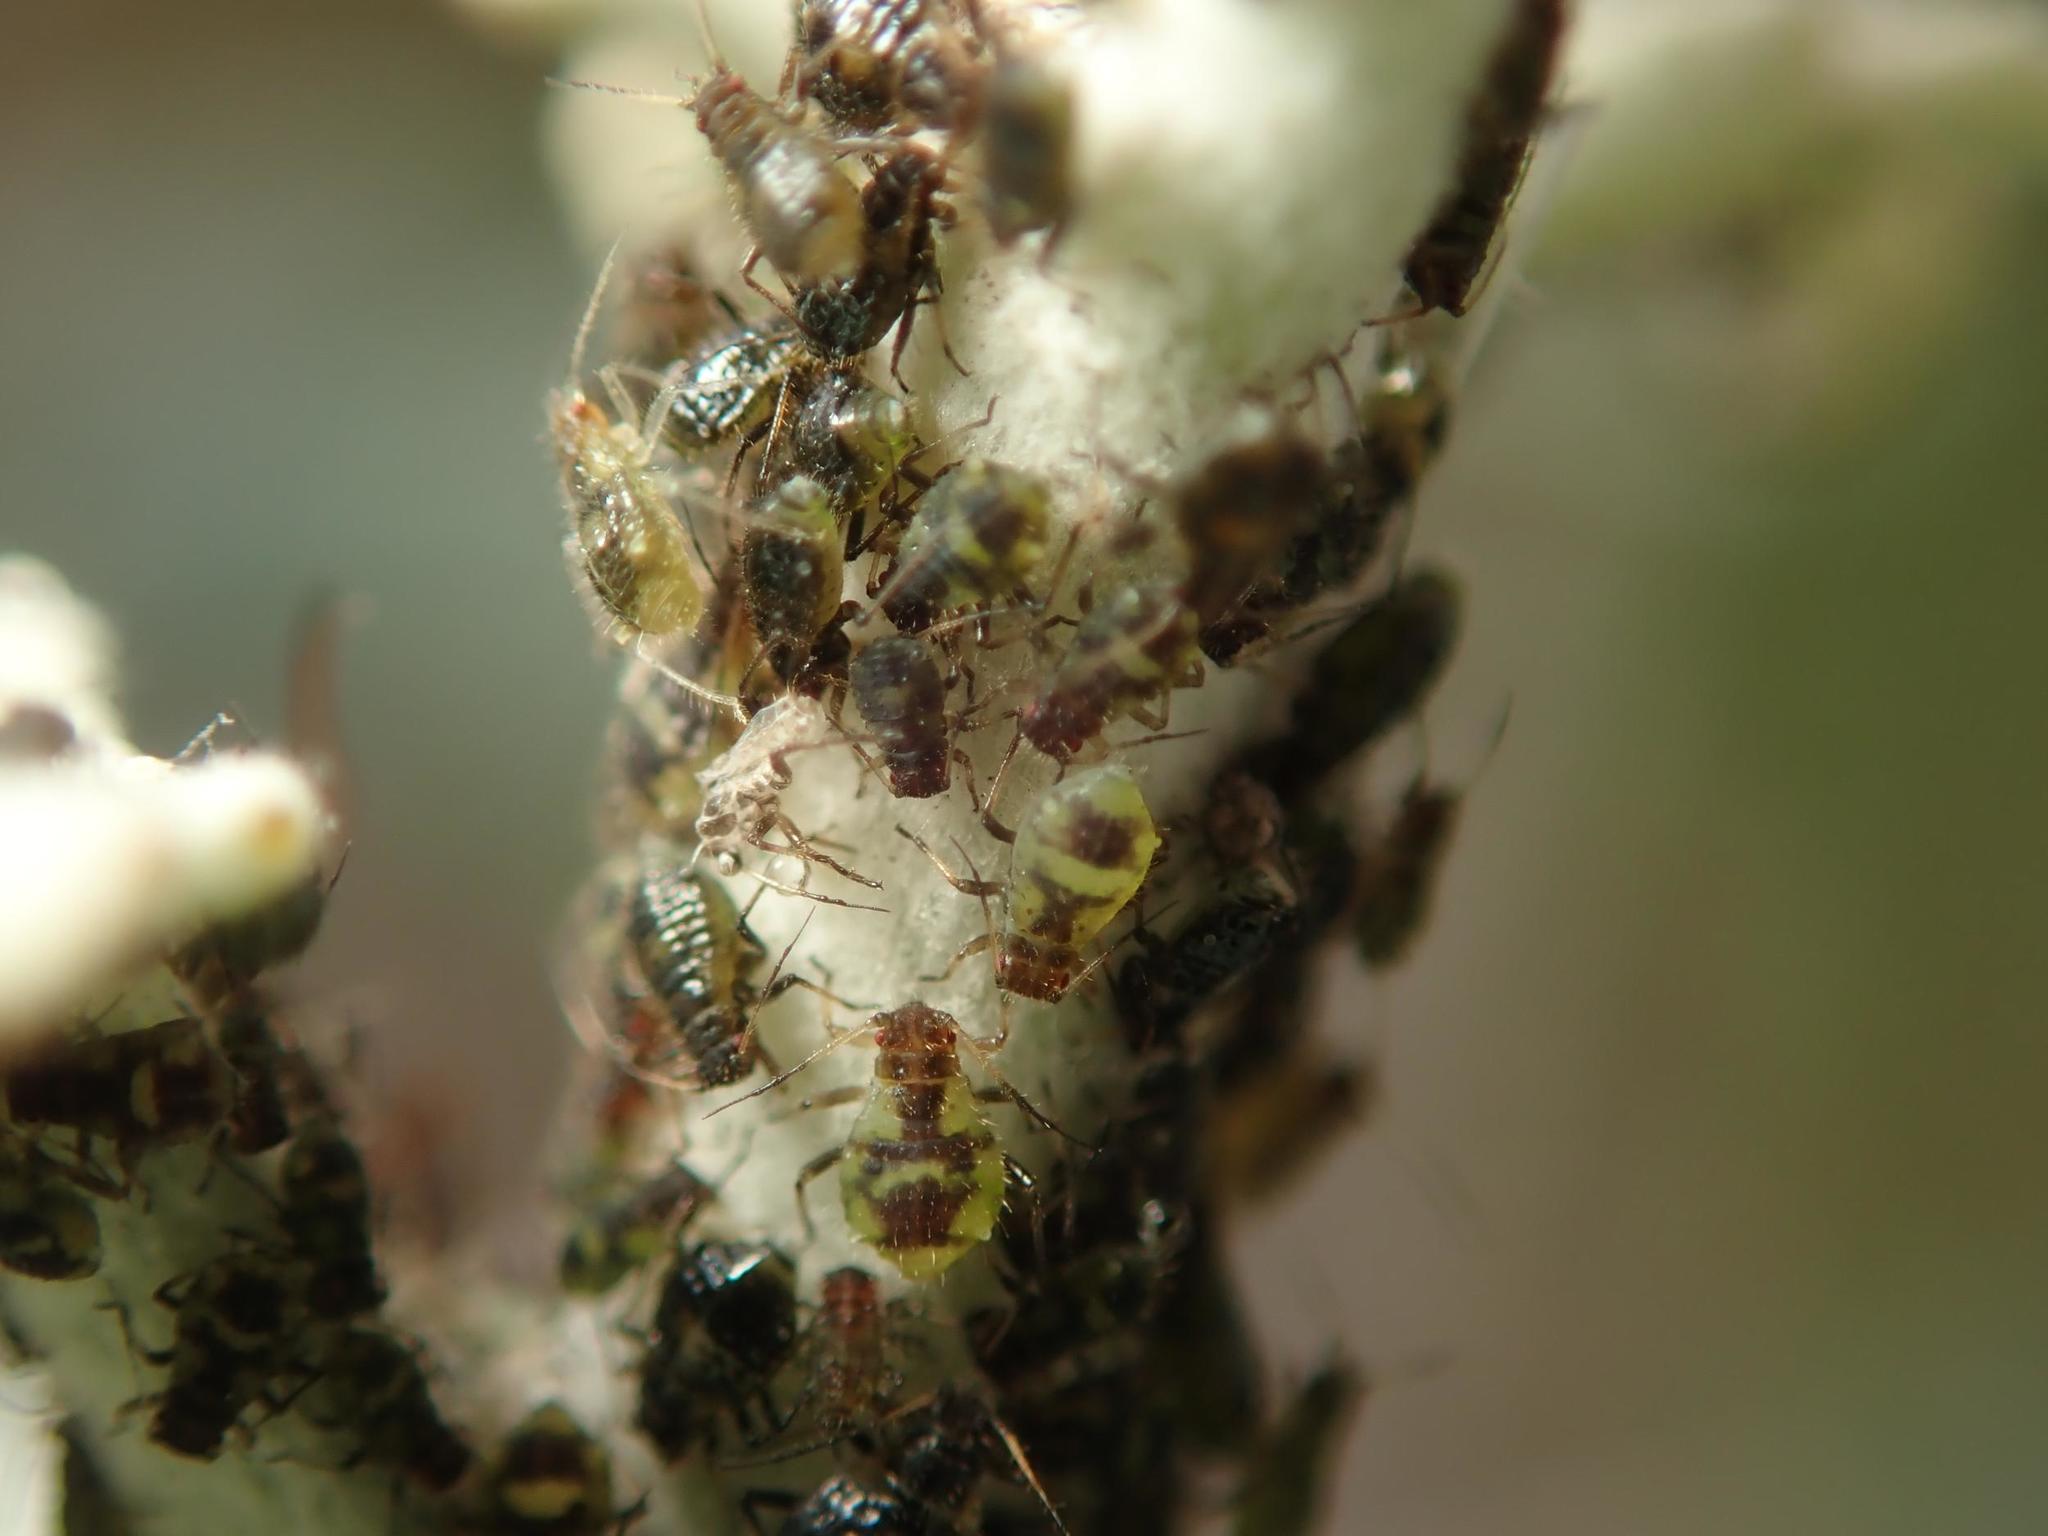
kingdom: Animalia
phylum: Arthropoda
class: Insecta
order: Hemiptera
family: Aphididae
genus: Chaitophorus
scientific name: Chaitophorus populeti
